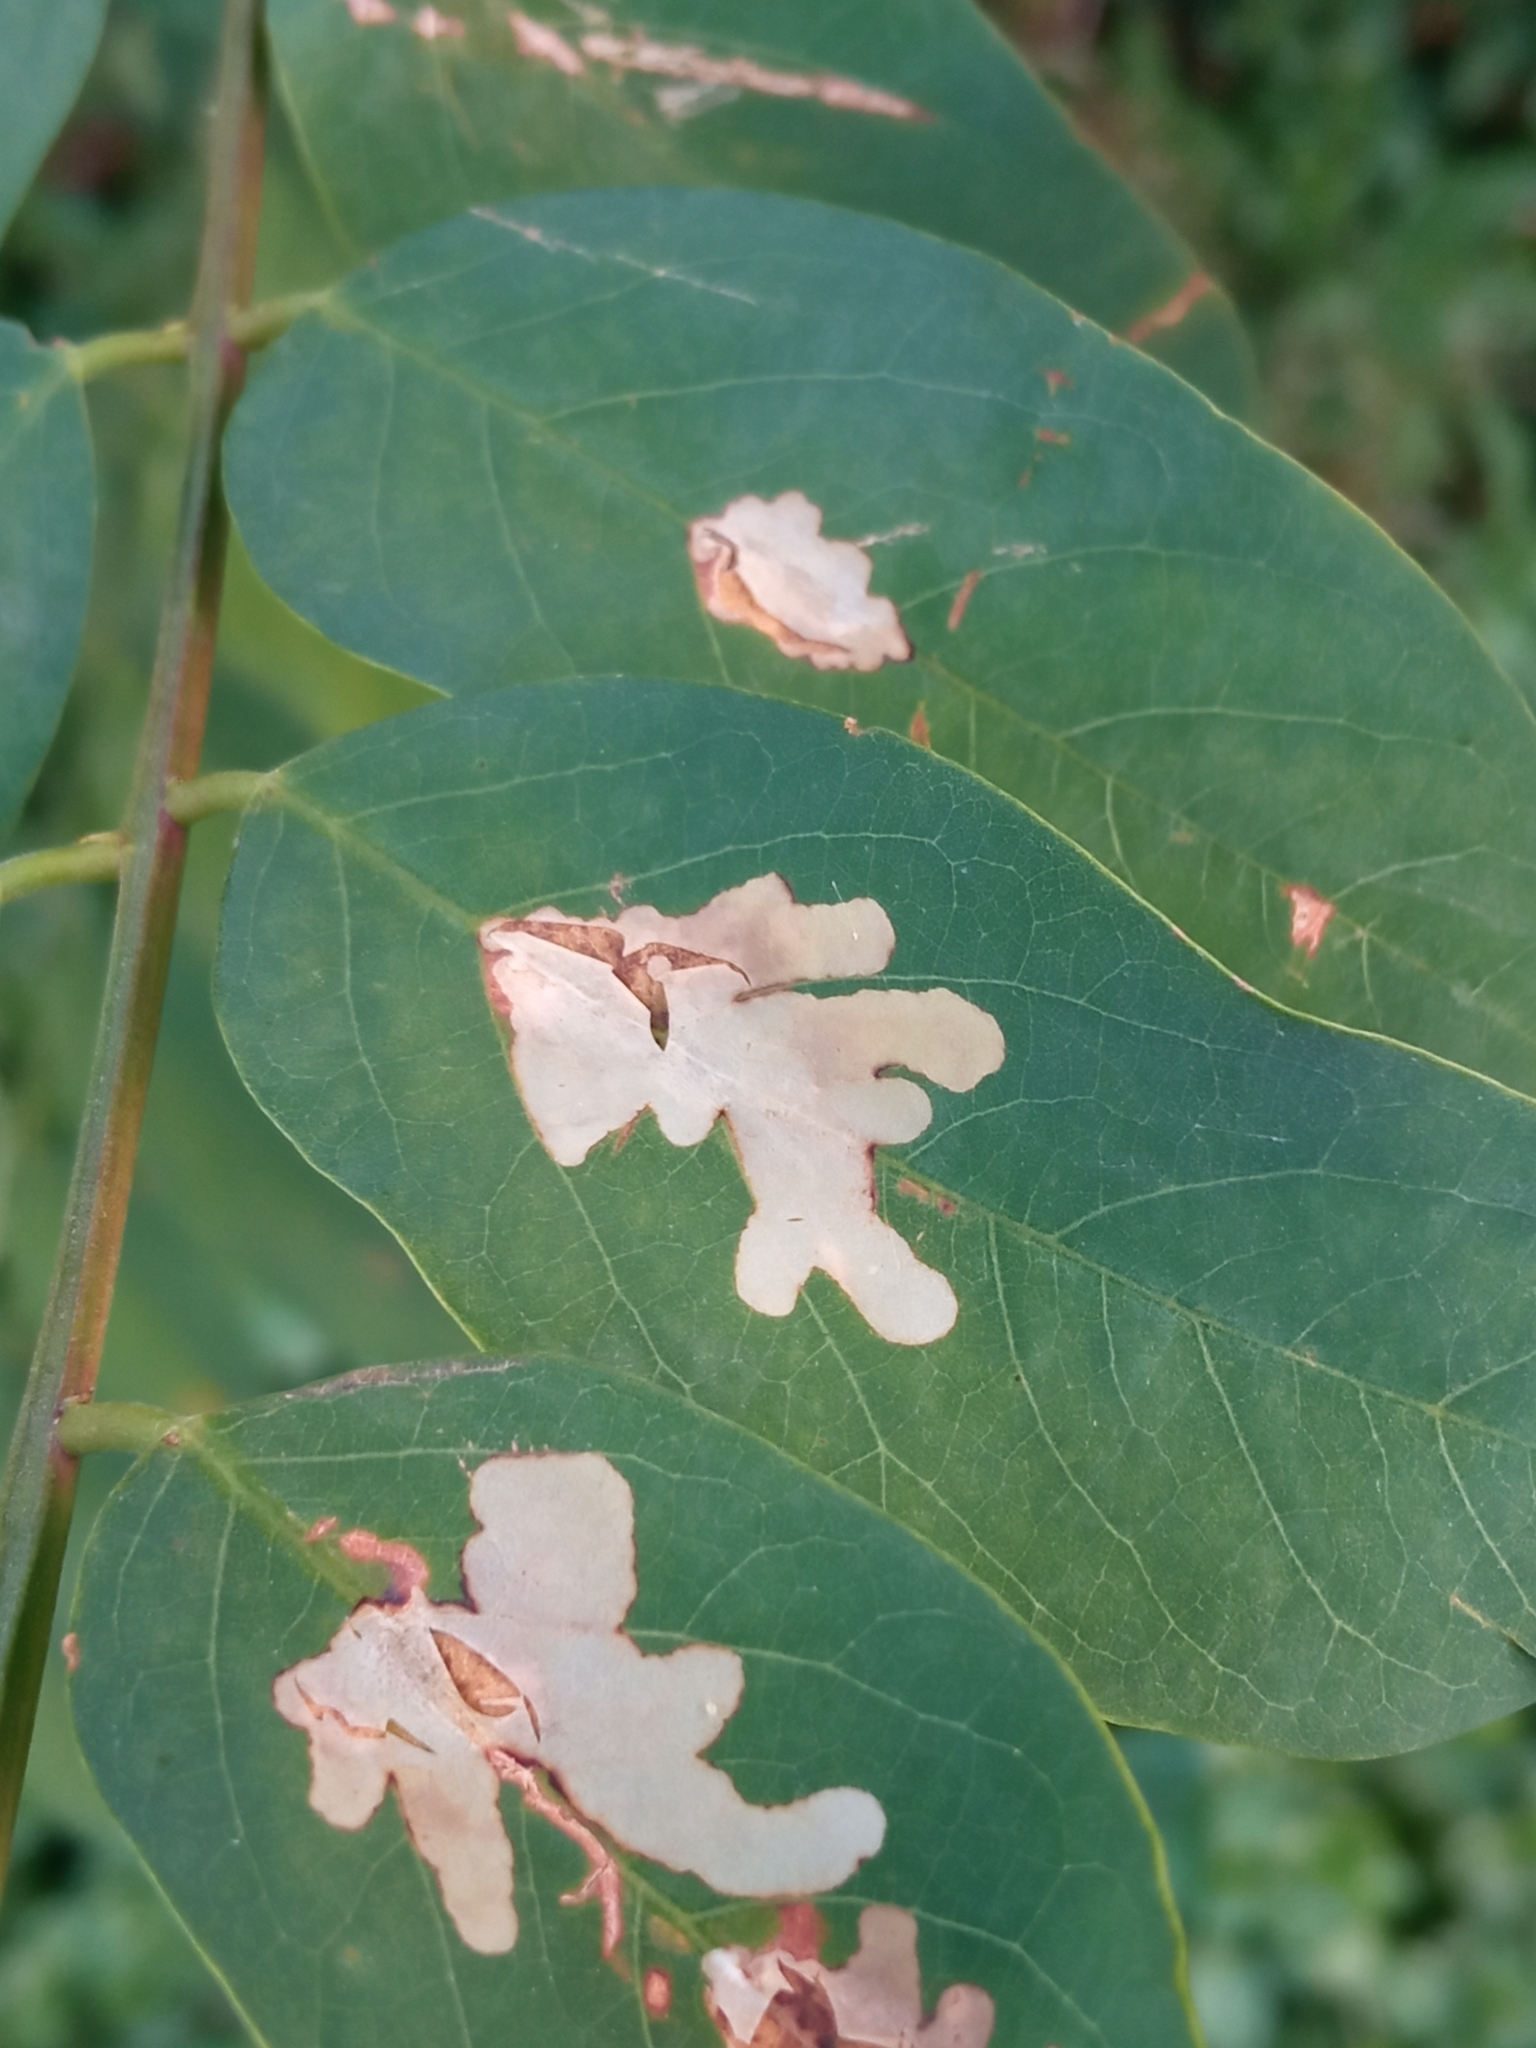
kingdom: Animalia
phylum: Arthropoda
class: Insecta
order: Lepidoptera
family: Gracillariidae
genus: Parectopa
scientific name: Parectopa robiniella
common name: Locust digitate leafminer
